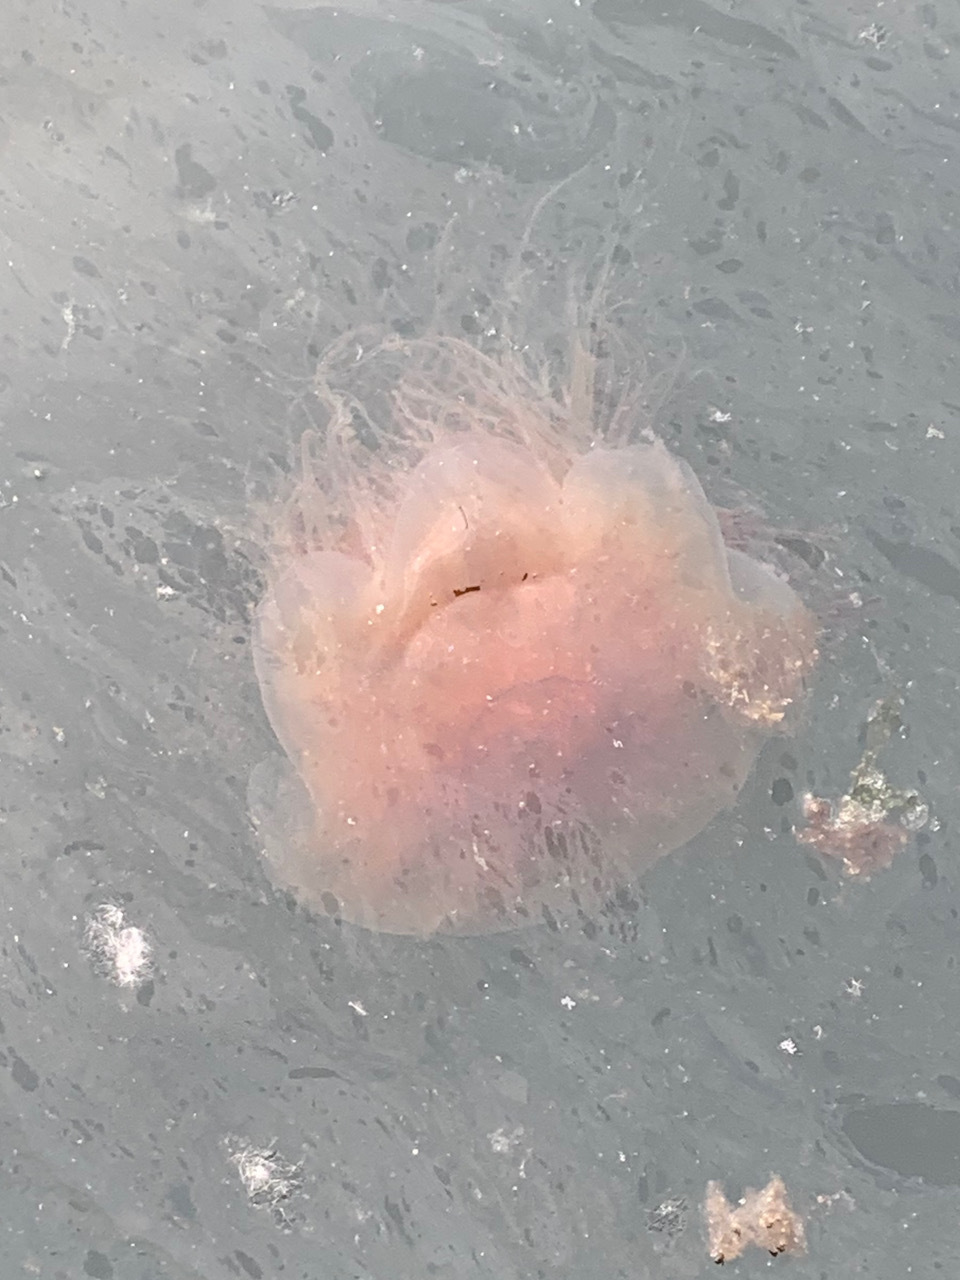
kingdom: Animalia
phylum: Cnidaria
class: Scyphozoa
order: Semaeostomeae
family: Cyaneidae
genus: Cyanea
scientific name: Cyanea ferruginea
